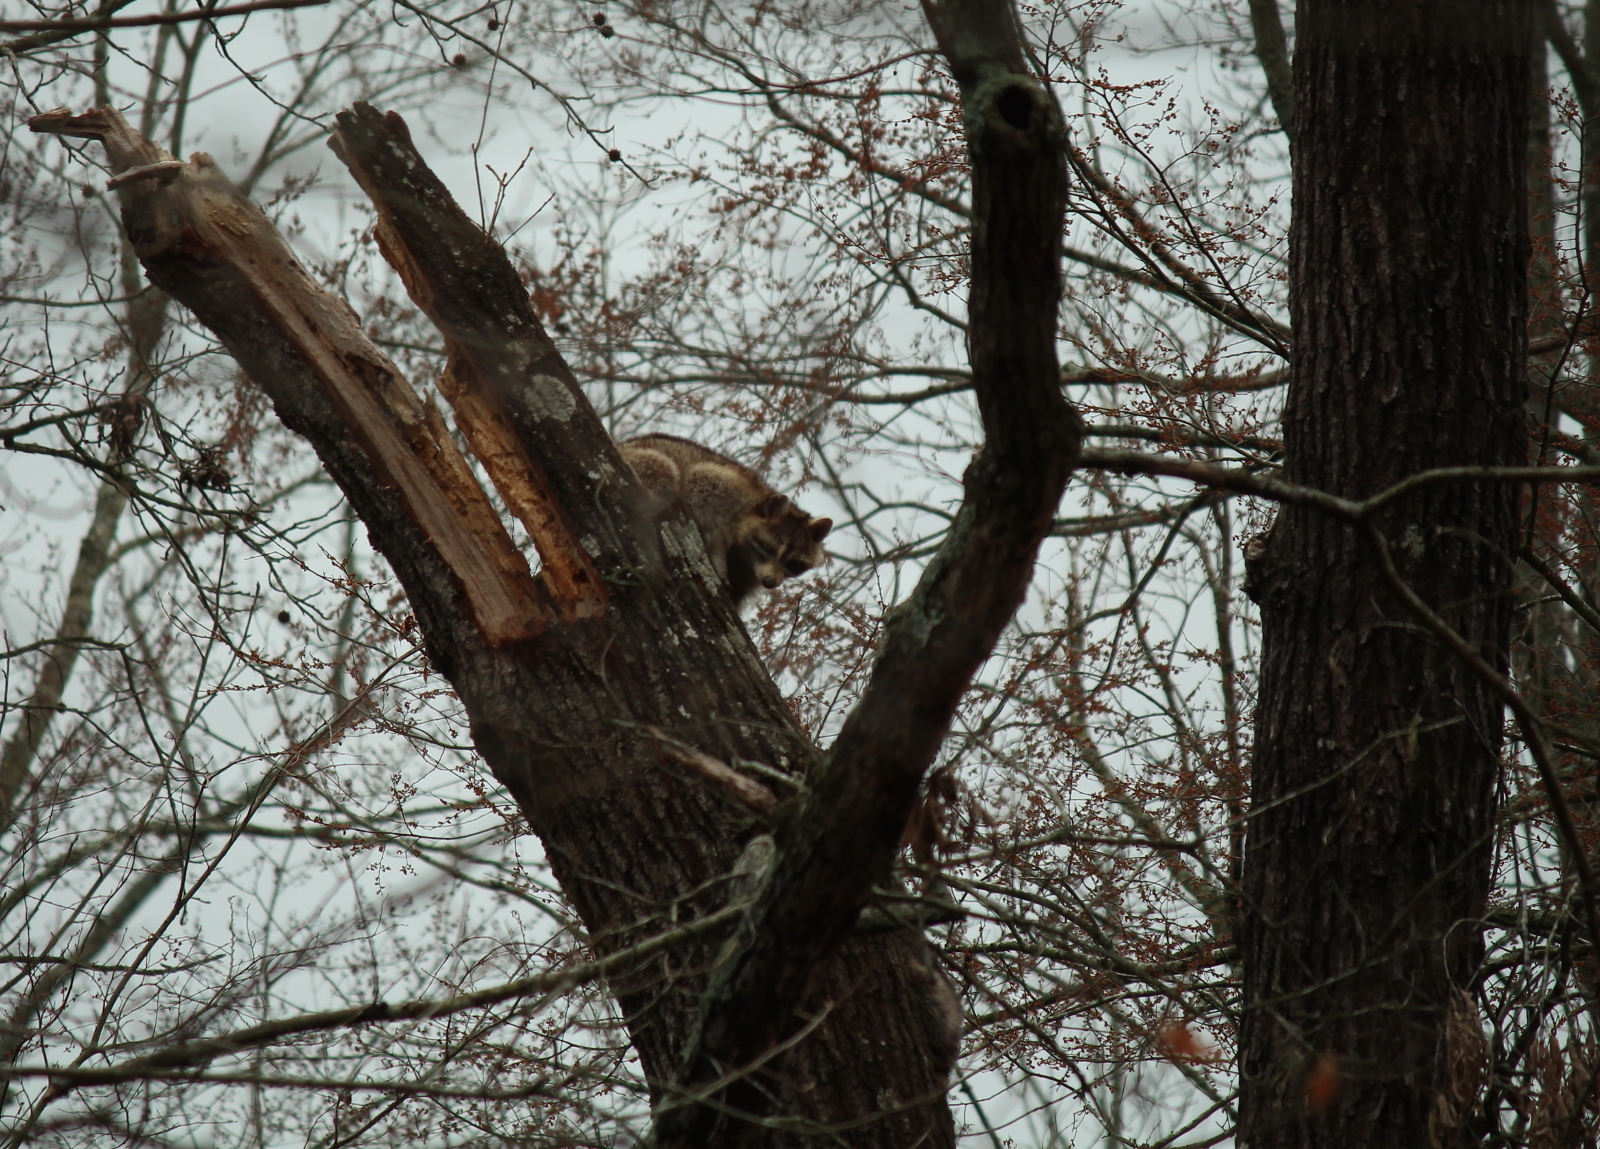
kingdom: Animalia
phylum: Chordata
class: Mammalia
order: Carnivora
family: Procyonidae
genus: Procyon
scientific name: Procyon lotor
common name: Raccoon
